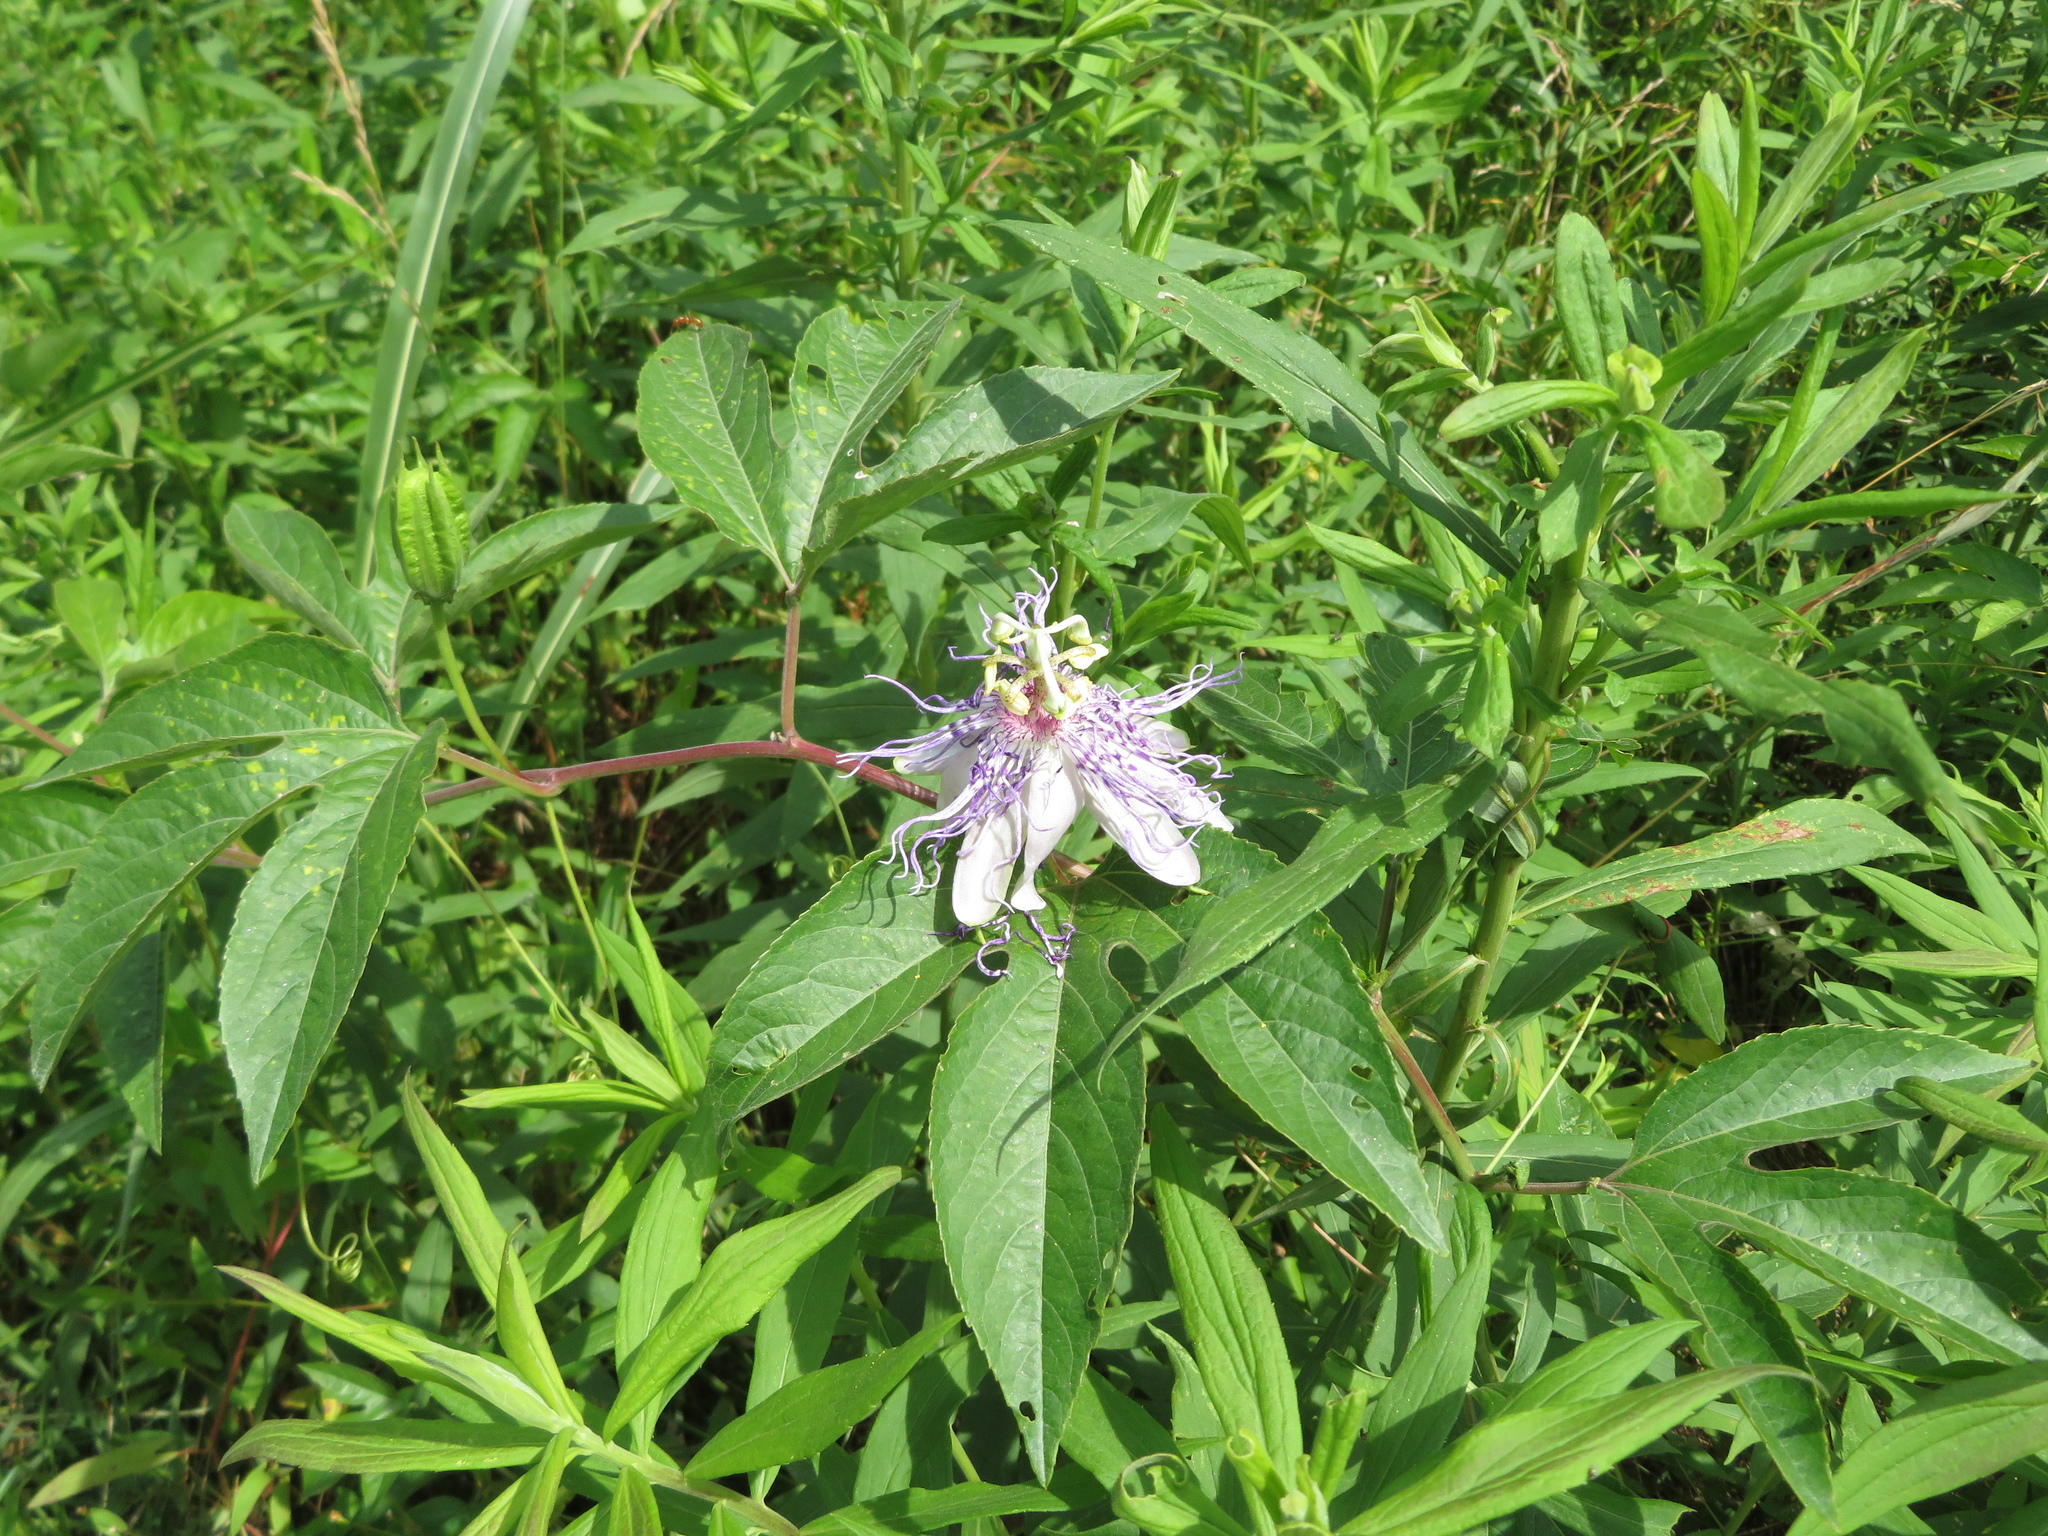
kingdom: Plantae
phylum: Tracheophyta
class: Magnoliopsida
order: Malpighiales
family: Passifloraceae
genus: Passiflora
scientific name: Passiflora incarnata
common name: Apricot-vine
